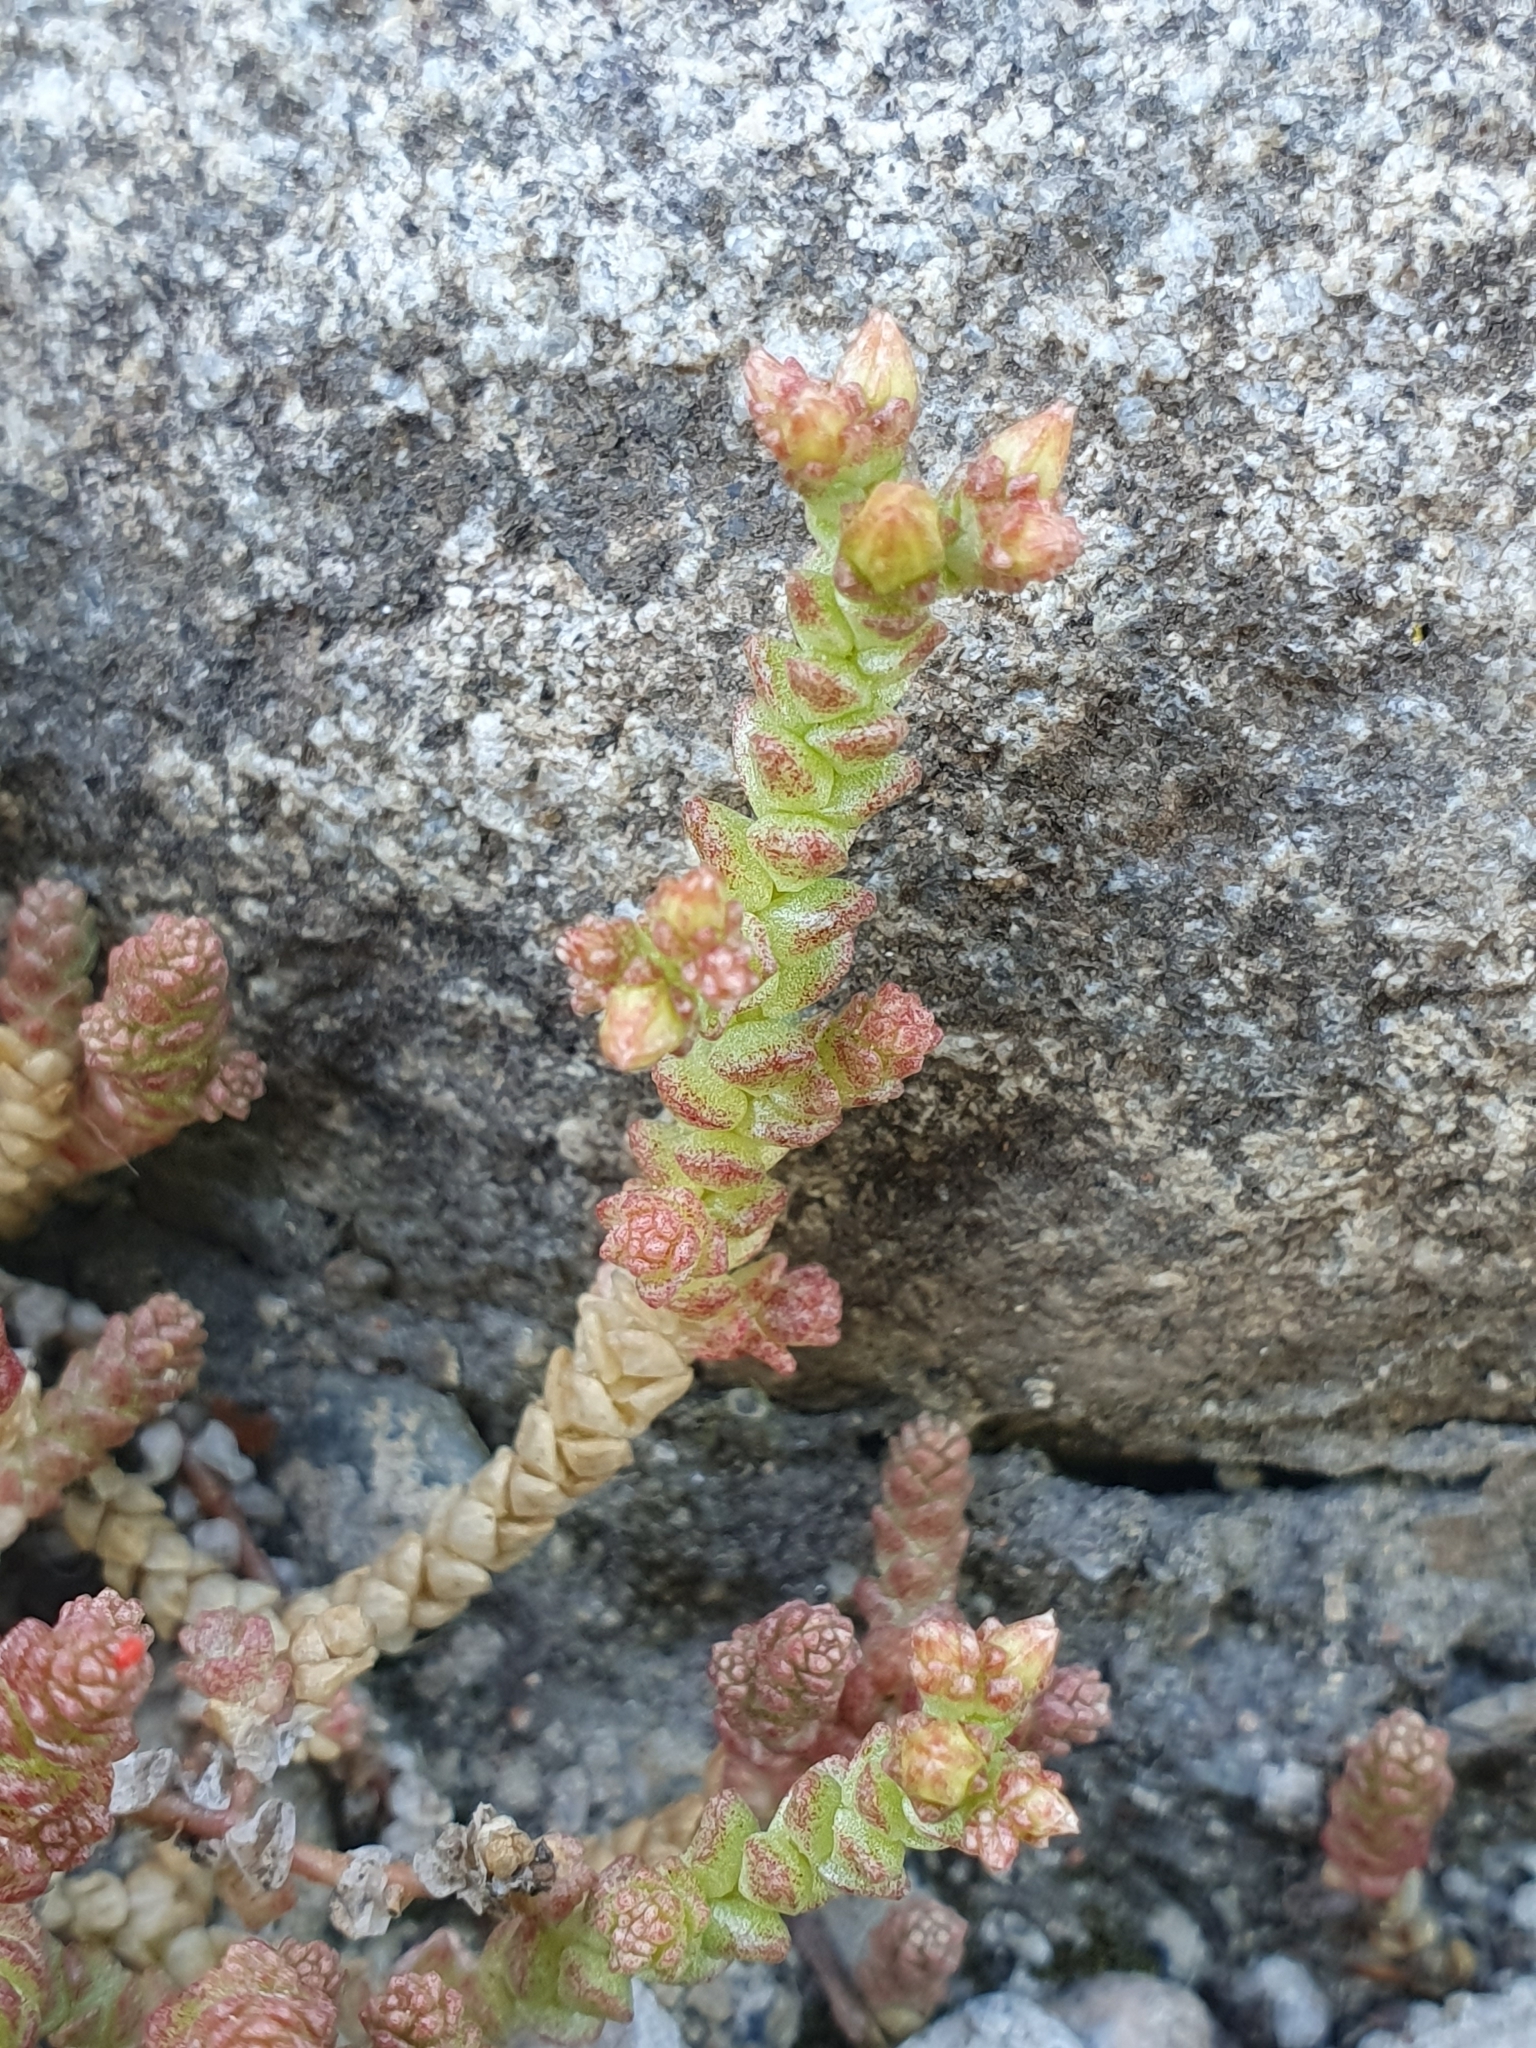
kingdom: Plantae
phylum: Tracheophyta
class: Magnoliopsida
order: Saxifragales
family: Crassulaceae
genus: Sedum
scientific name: Sedum acre
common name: Biting stonecrop
